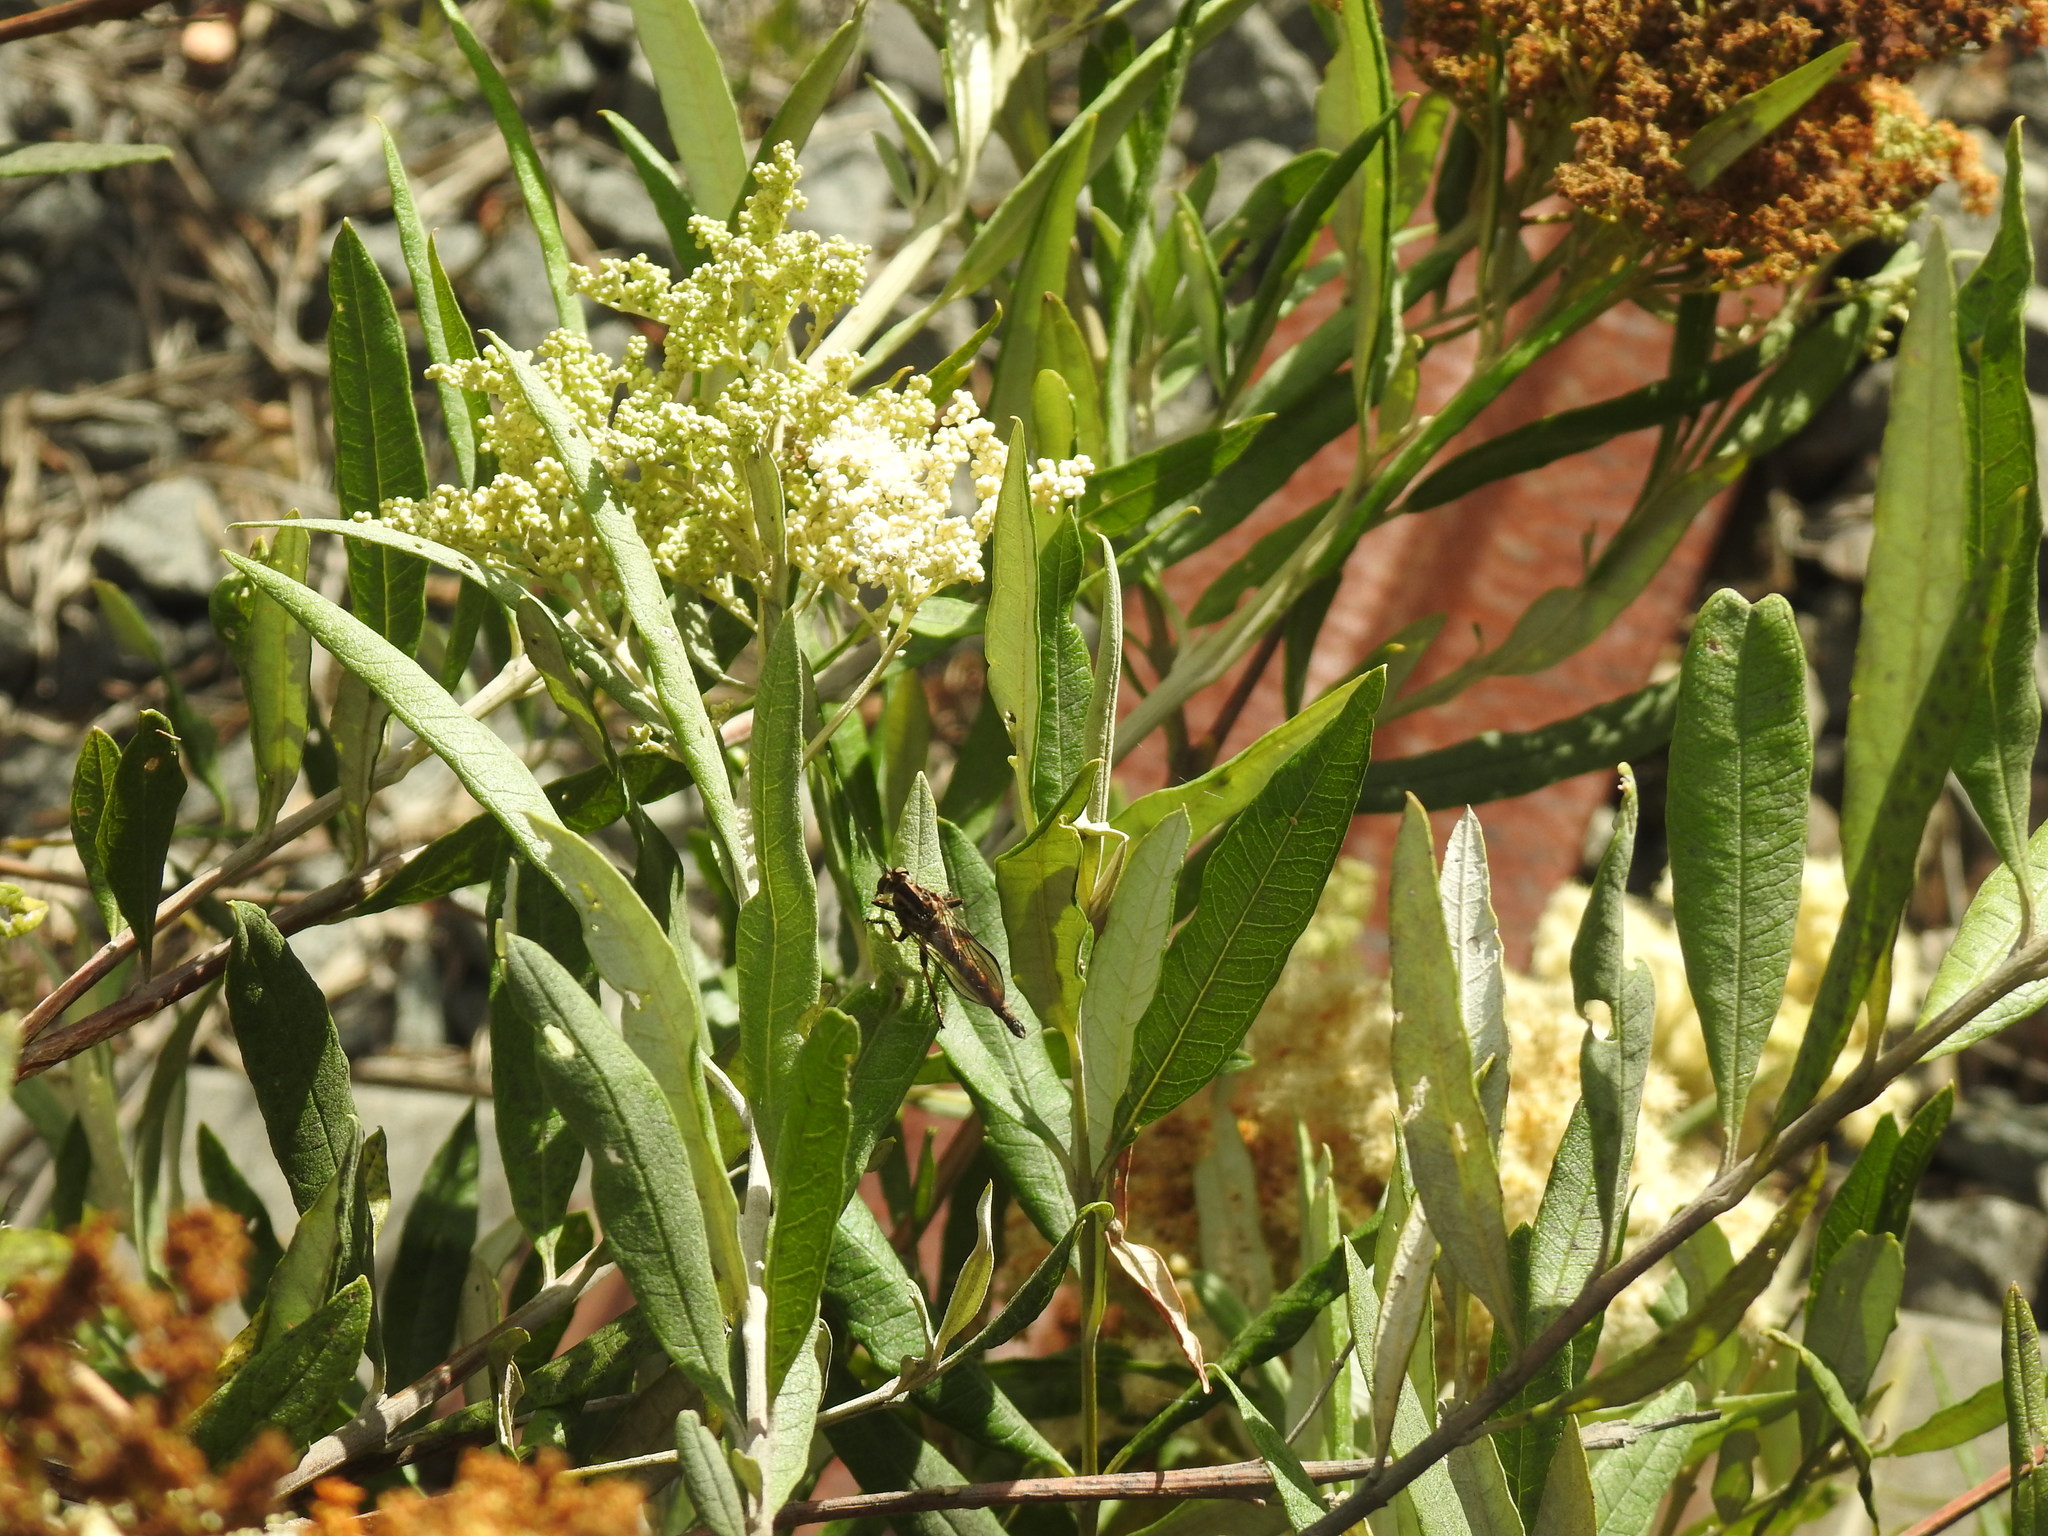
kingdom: Plantae
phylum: Tracheophyta
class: Magnoliopsida
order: Lamiales
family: Scrophulariaceae
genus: Buddleja
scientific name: Buddleja saligna
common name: False olive
